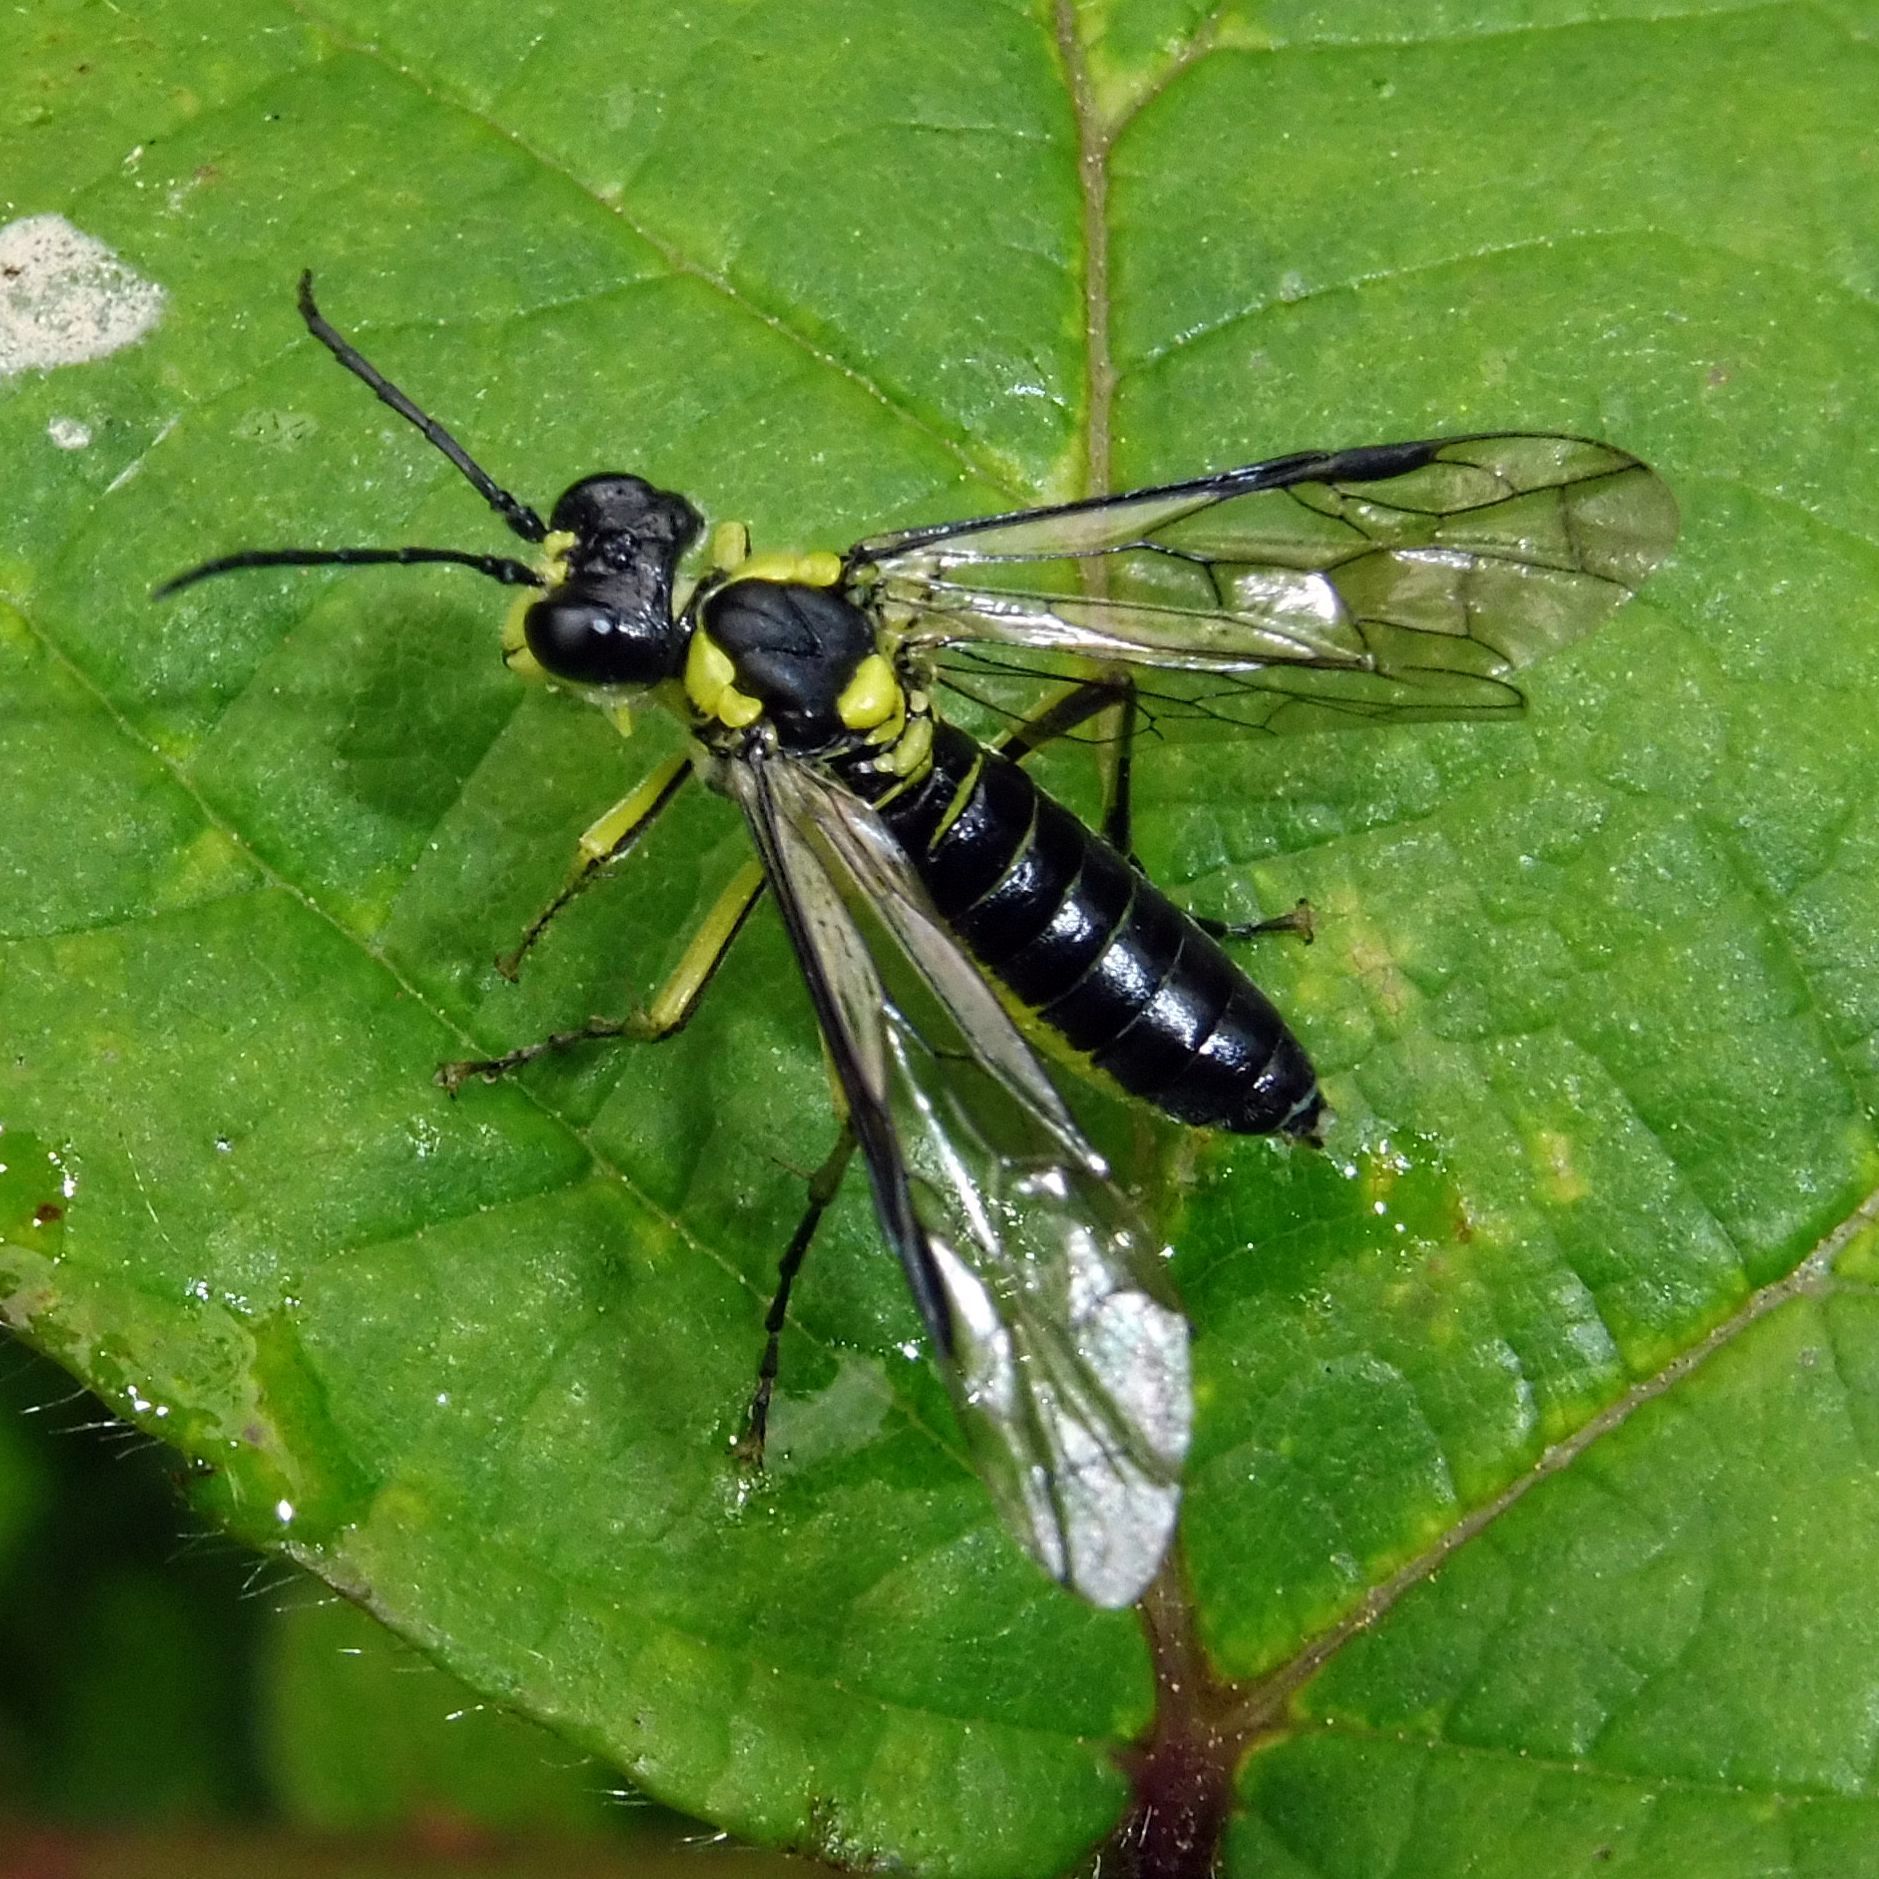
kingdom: Animalia
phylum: Arthropoda
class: Insecta
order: Hymenoptera
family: Tenthredinidae
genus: Tenthredo
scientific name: Tenthredo mesomela
